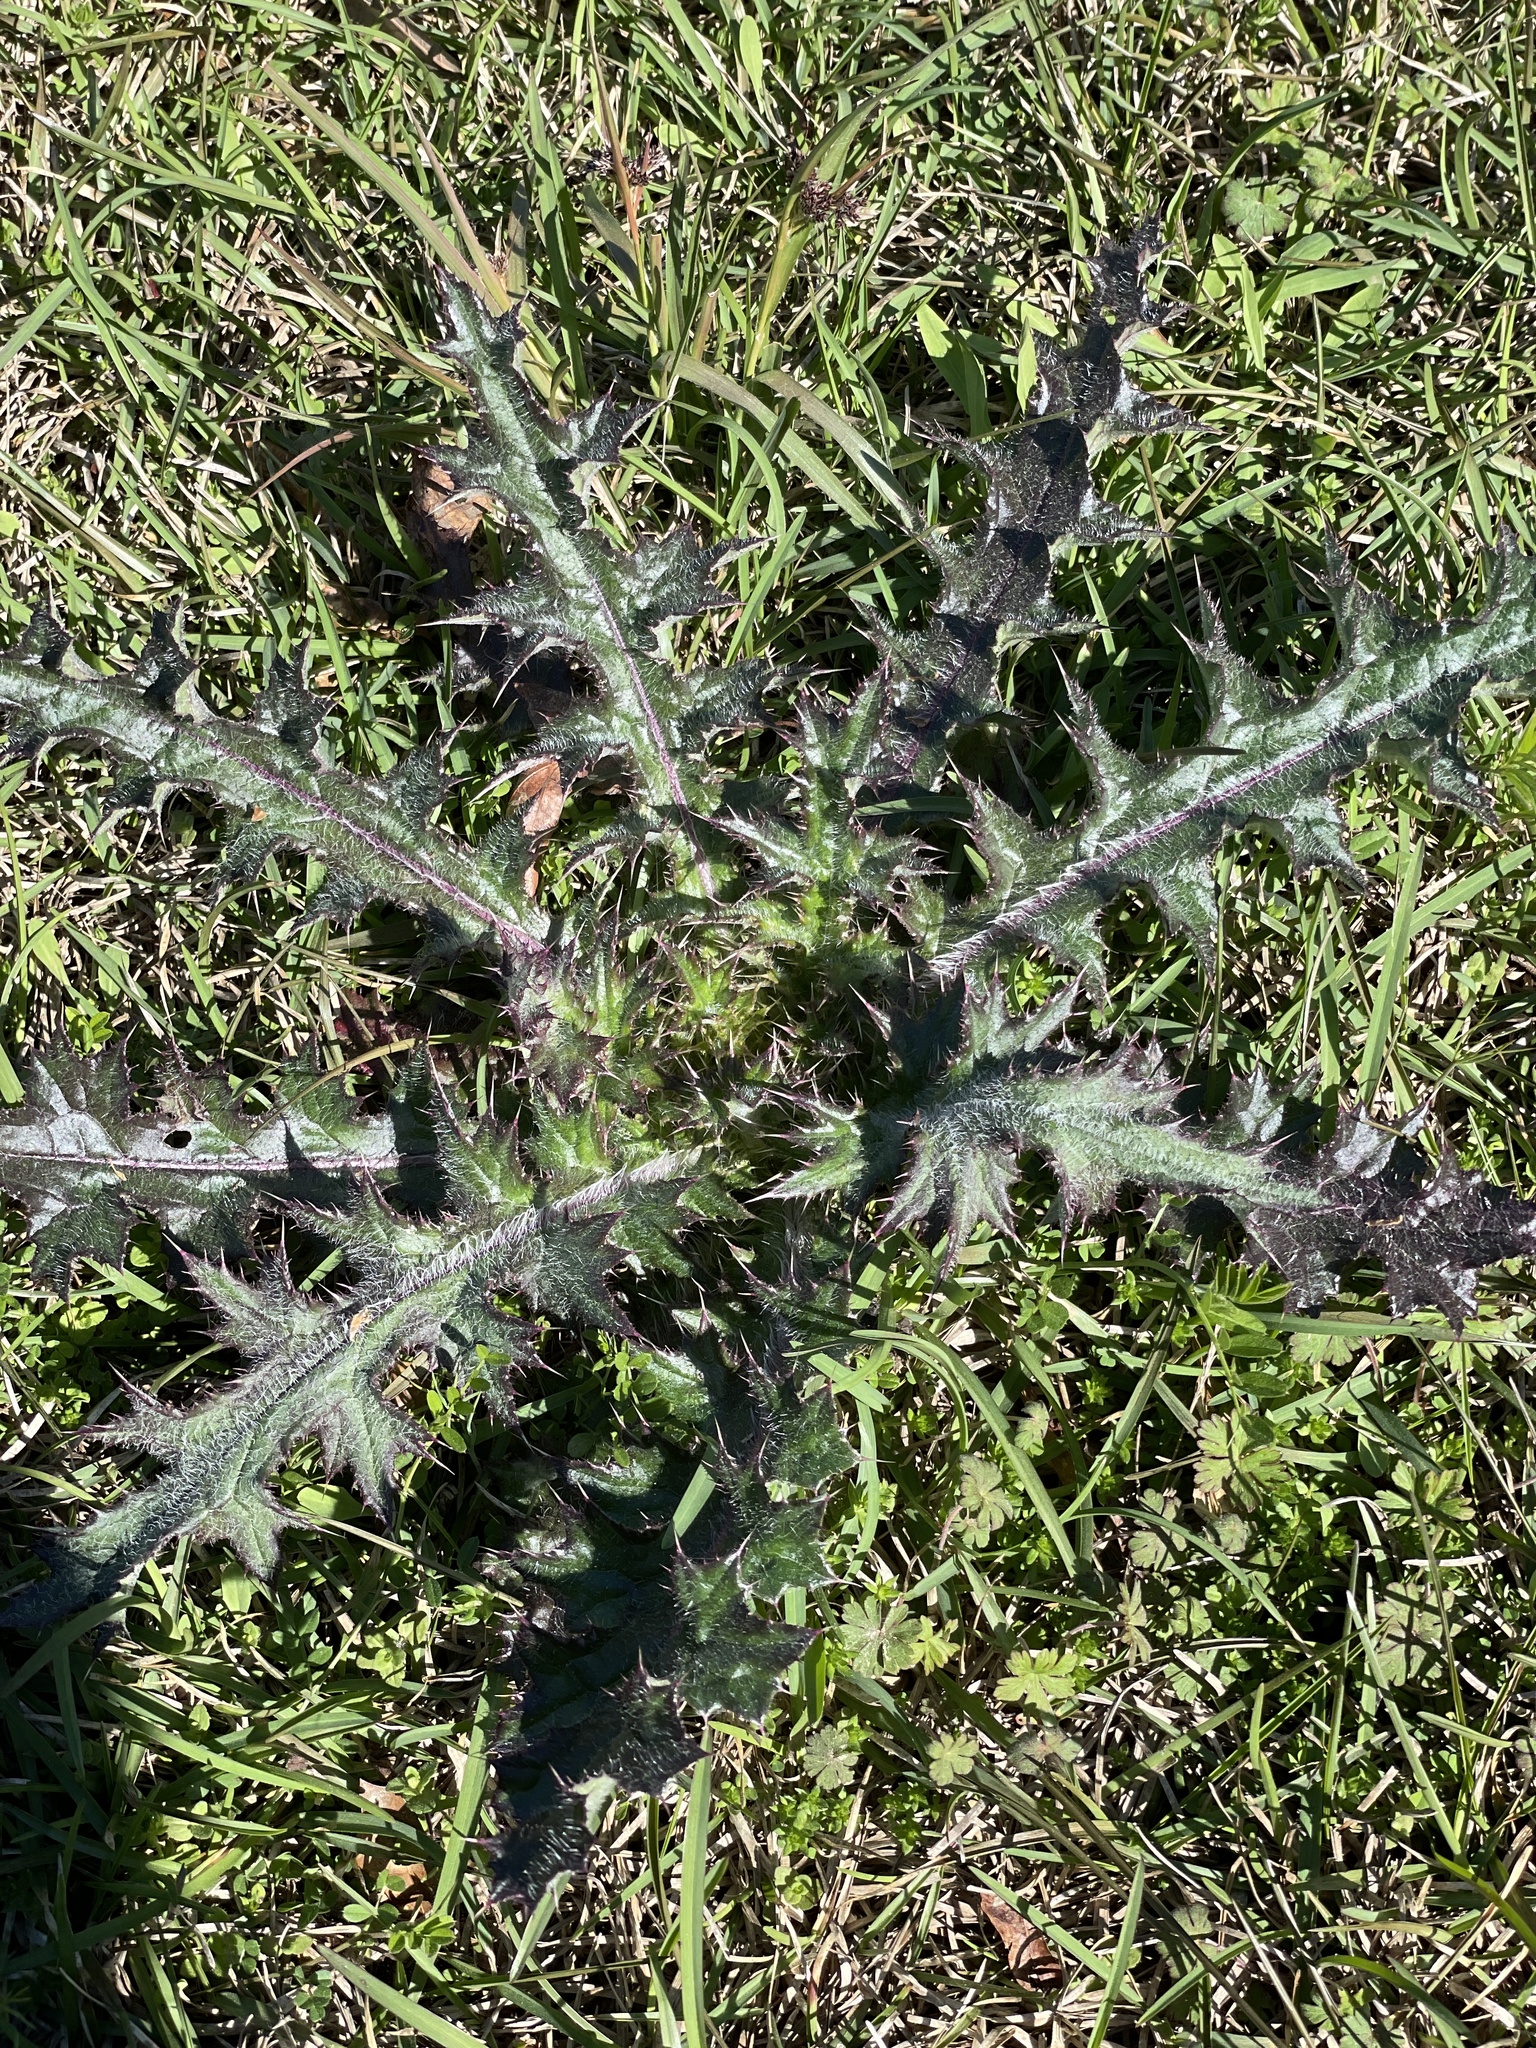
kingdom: Plantae
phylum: Tracheophyta
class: Magnoliopsida
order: Asterales
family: Asteraceae
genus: Cirsium
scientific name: Cirsium horridulum
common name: Bristly thistle
